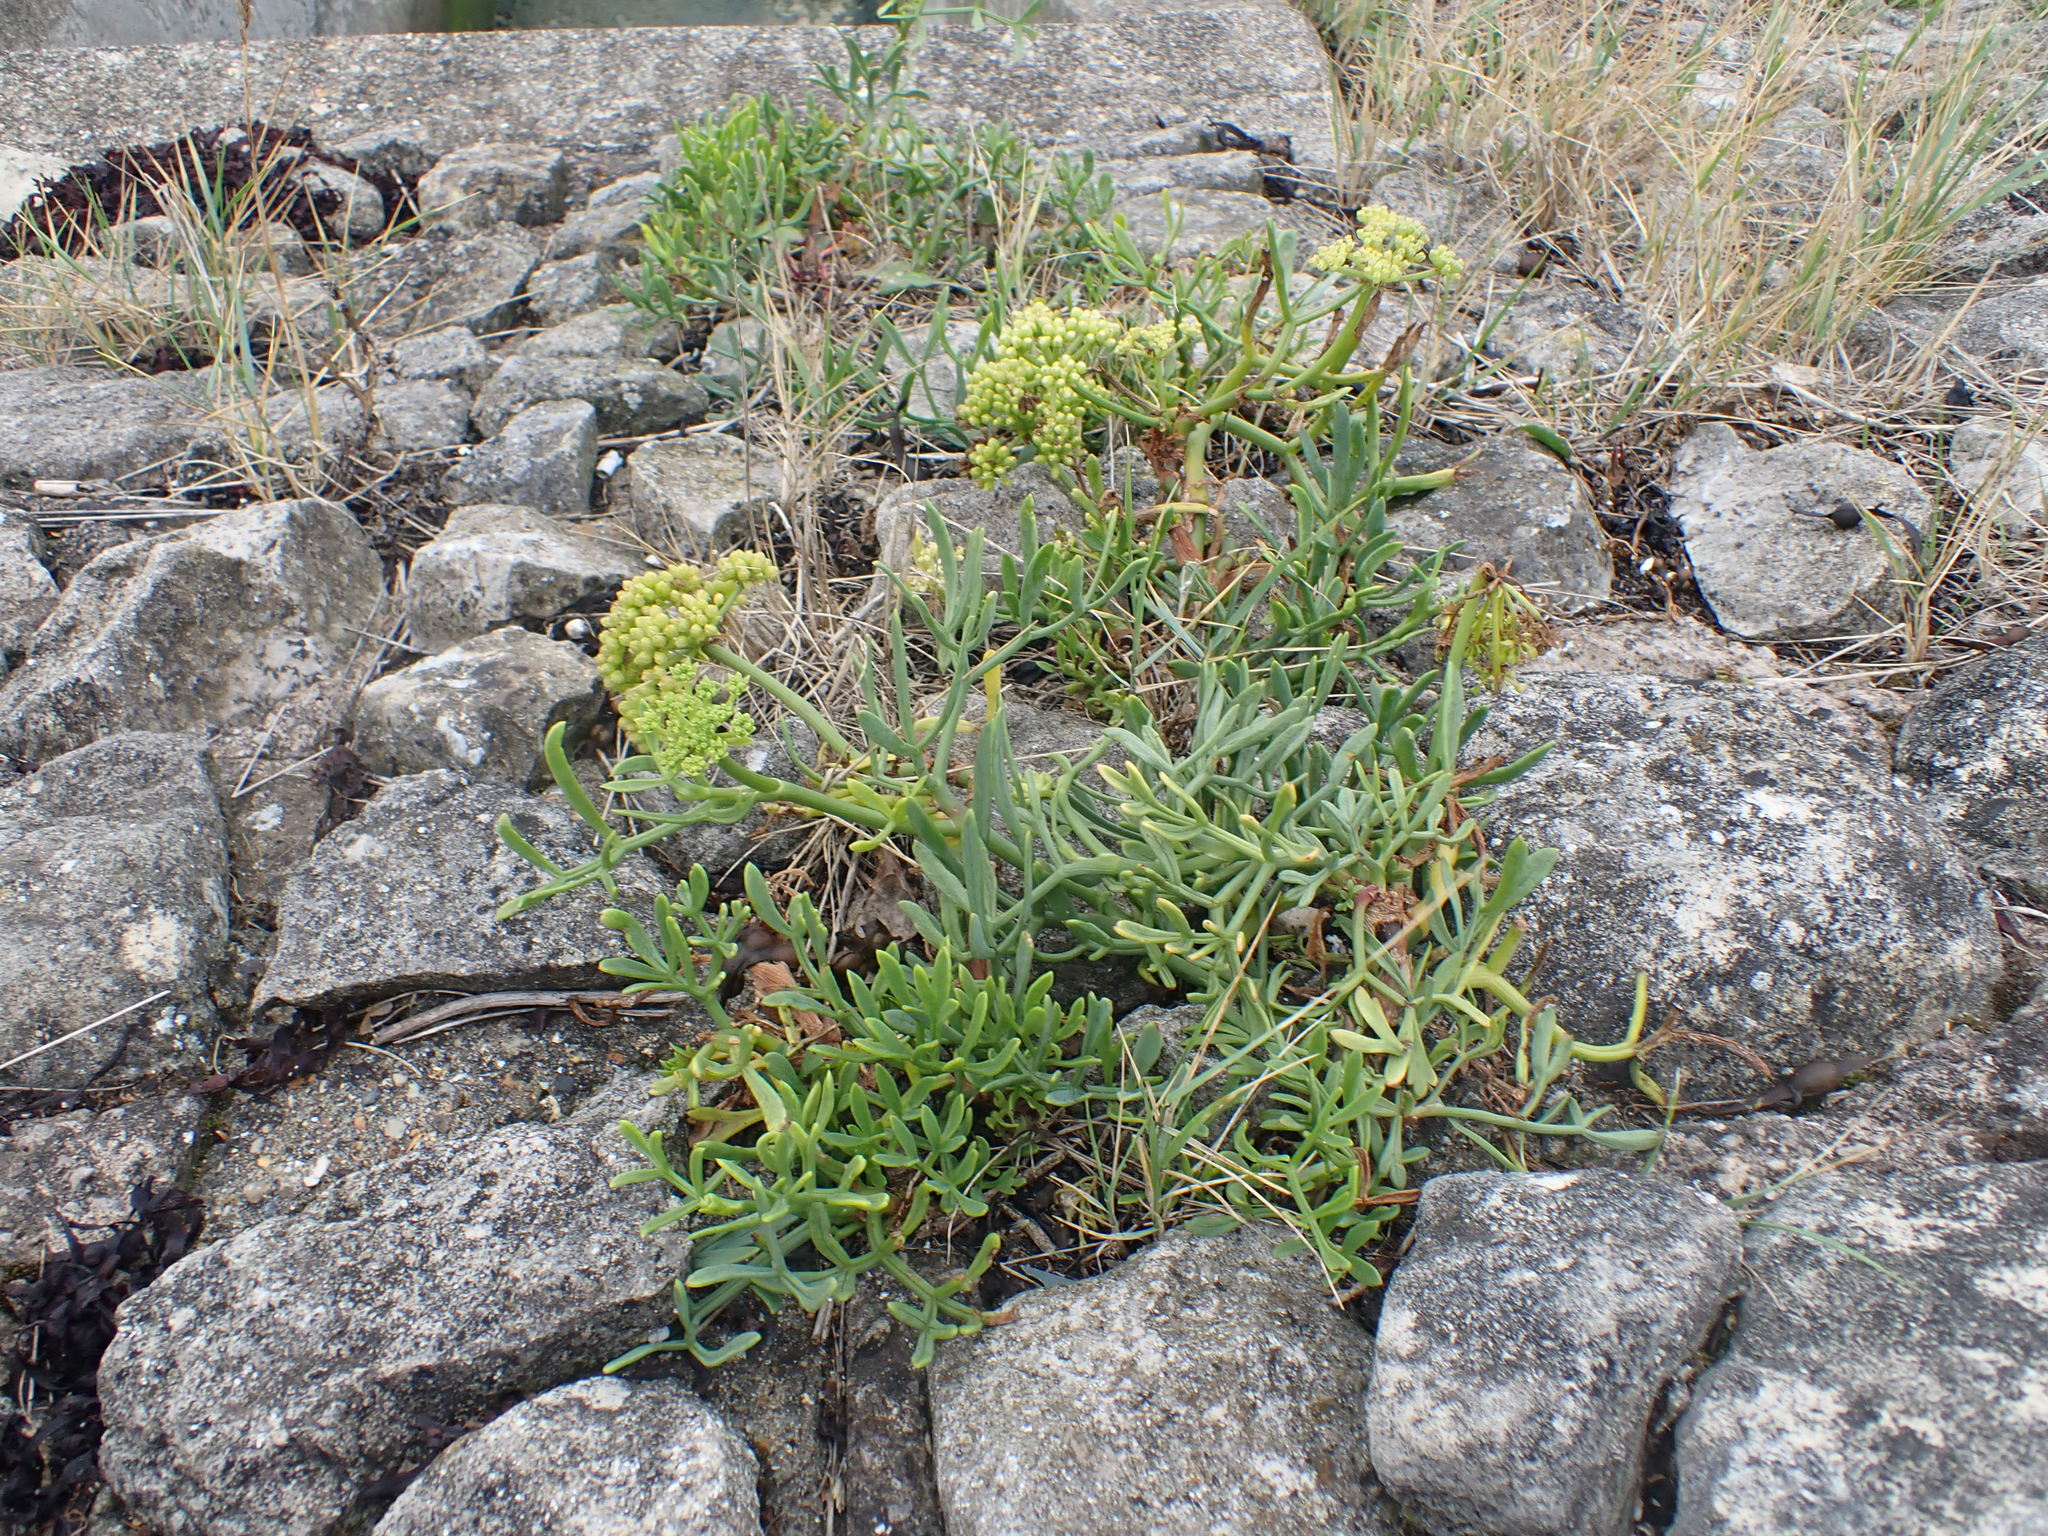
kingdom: Plantae
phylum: Tracheophyta
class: Magnoliopsida
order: Apiales
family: Apiaceae
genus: Crithmum
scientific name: Crithmum maritimum
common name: Rock samphire
